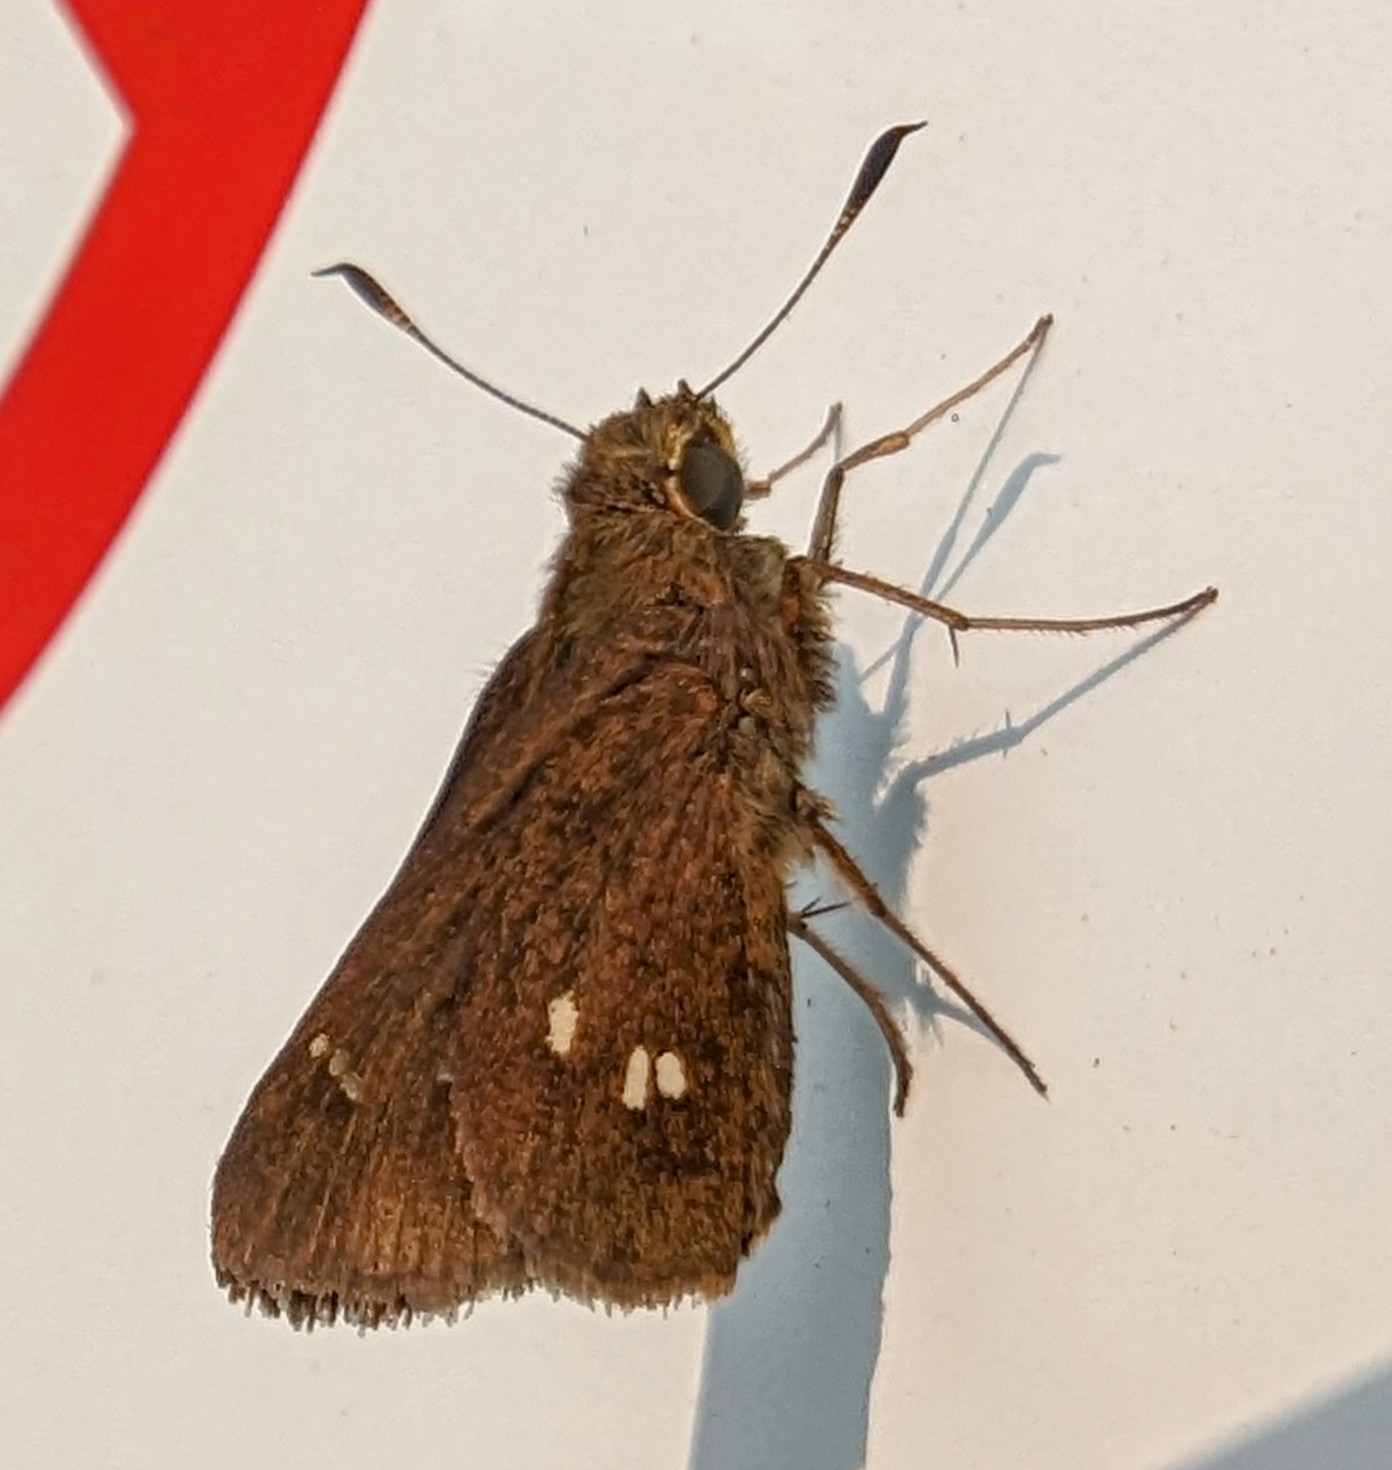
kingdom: Animalia
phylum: Arthropoda
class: Insecta
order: Lepidoptera
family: Hesperiidae
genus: Oligoria
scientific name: Oligoria maculata
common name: Twin-spot skipper
